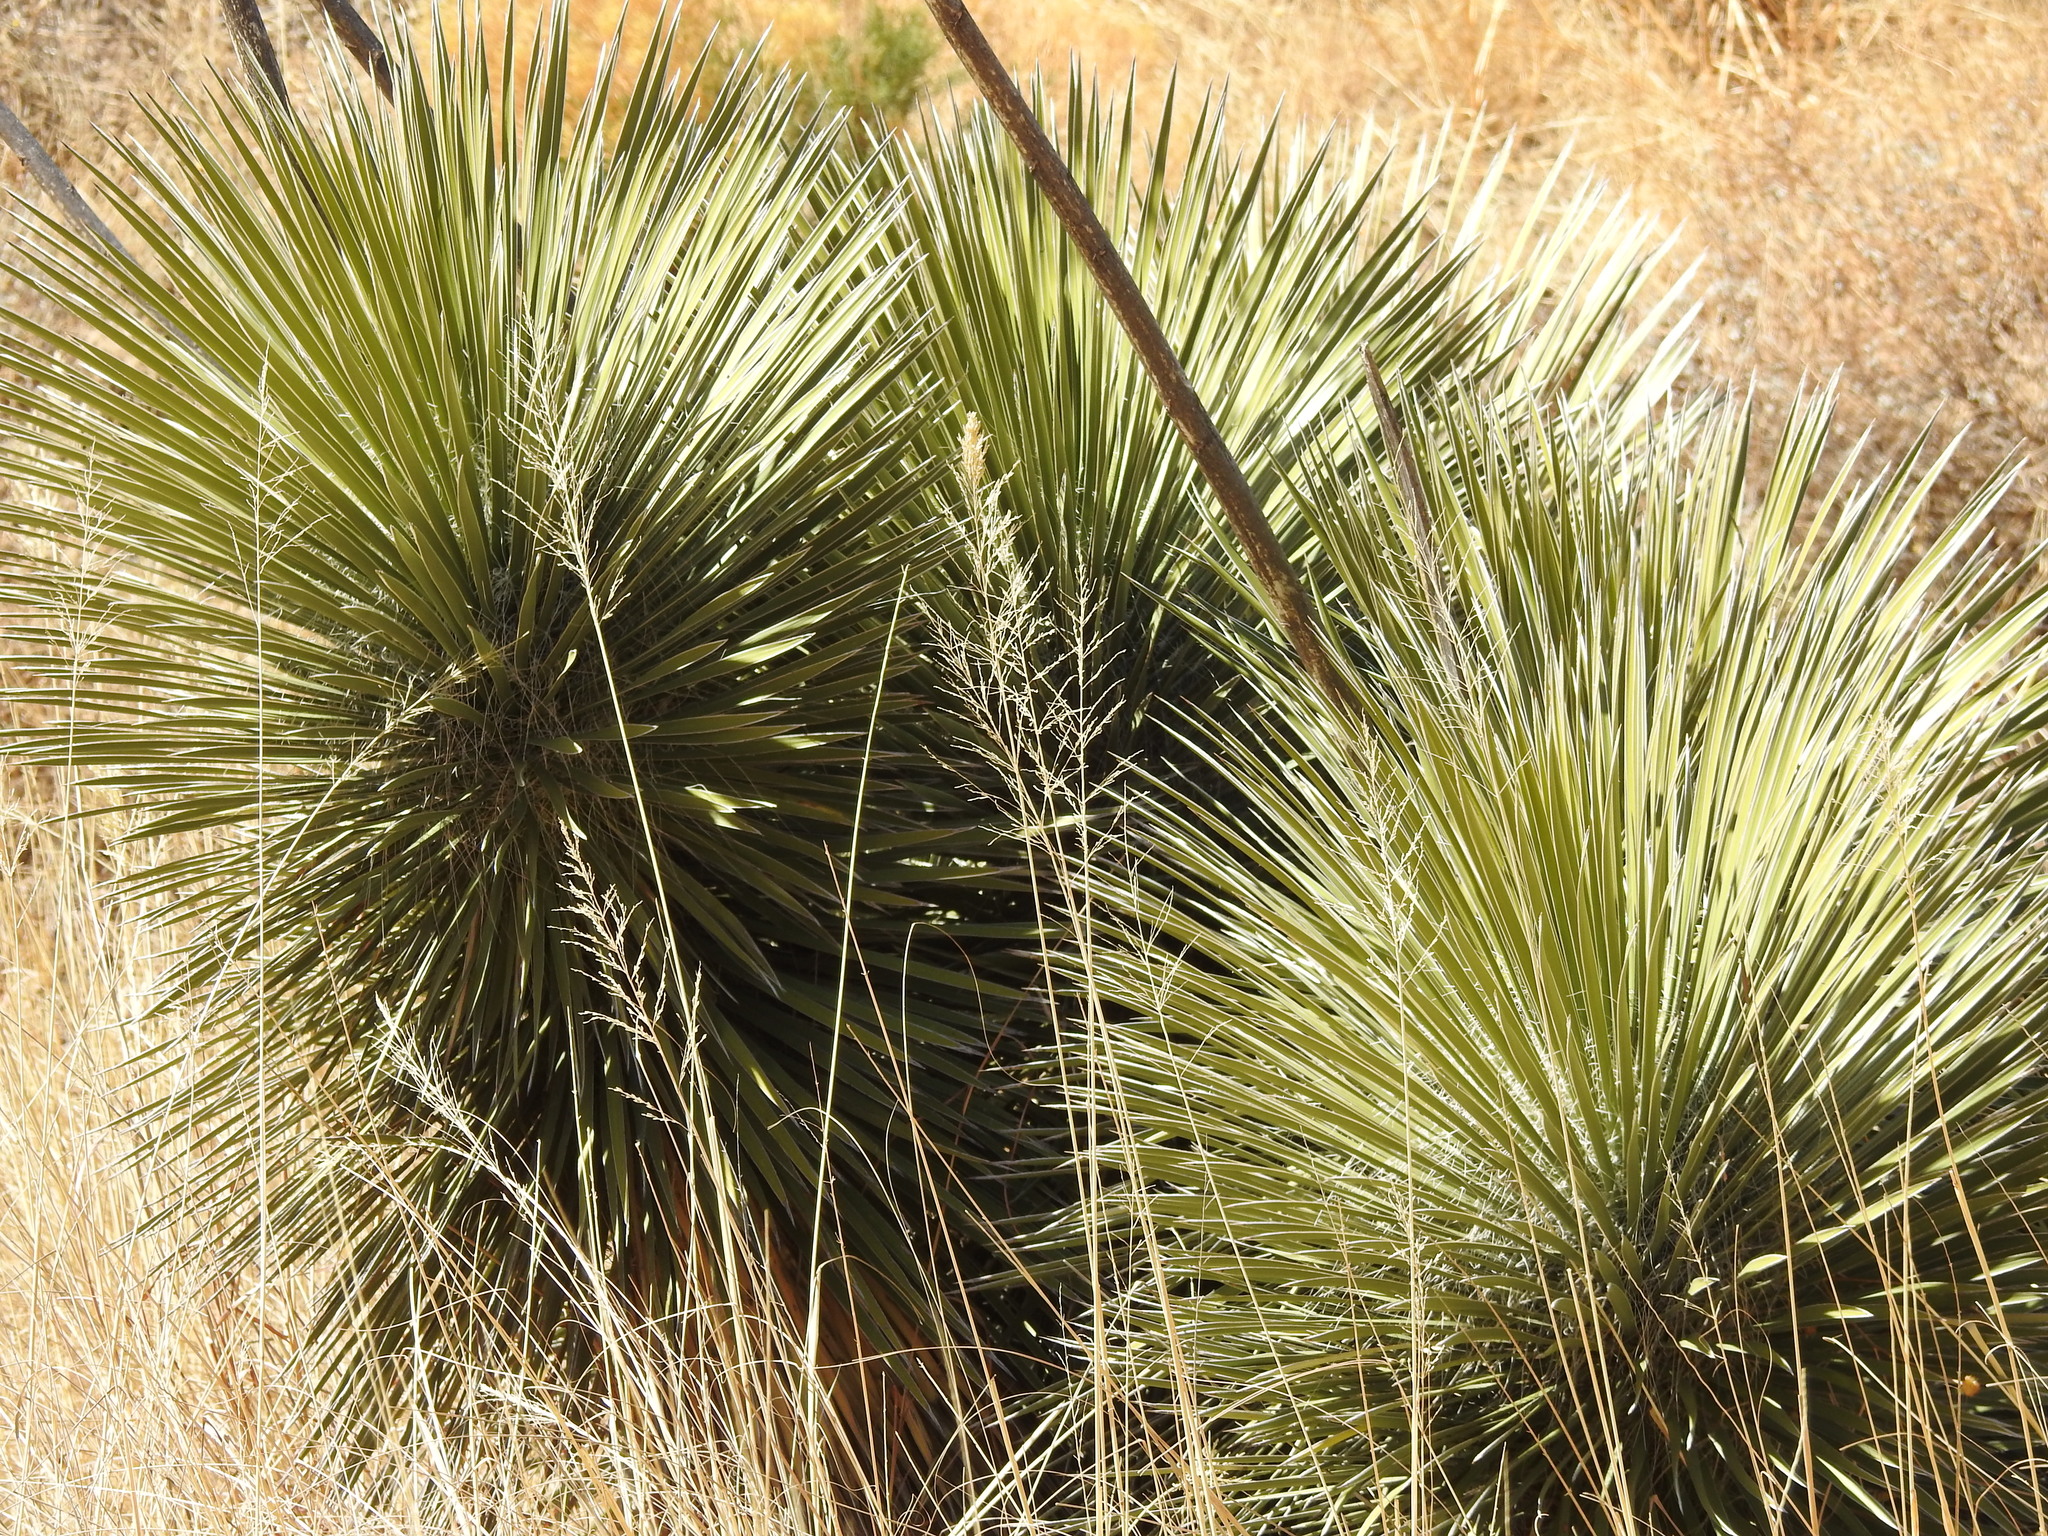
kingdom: Plantae
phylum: Tracheophyta
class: Liliopsida
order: Asparagales
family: Asparagaceae
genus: Yucca
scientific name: Yucca elata
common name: Palmella
